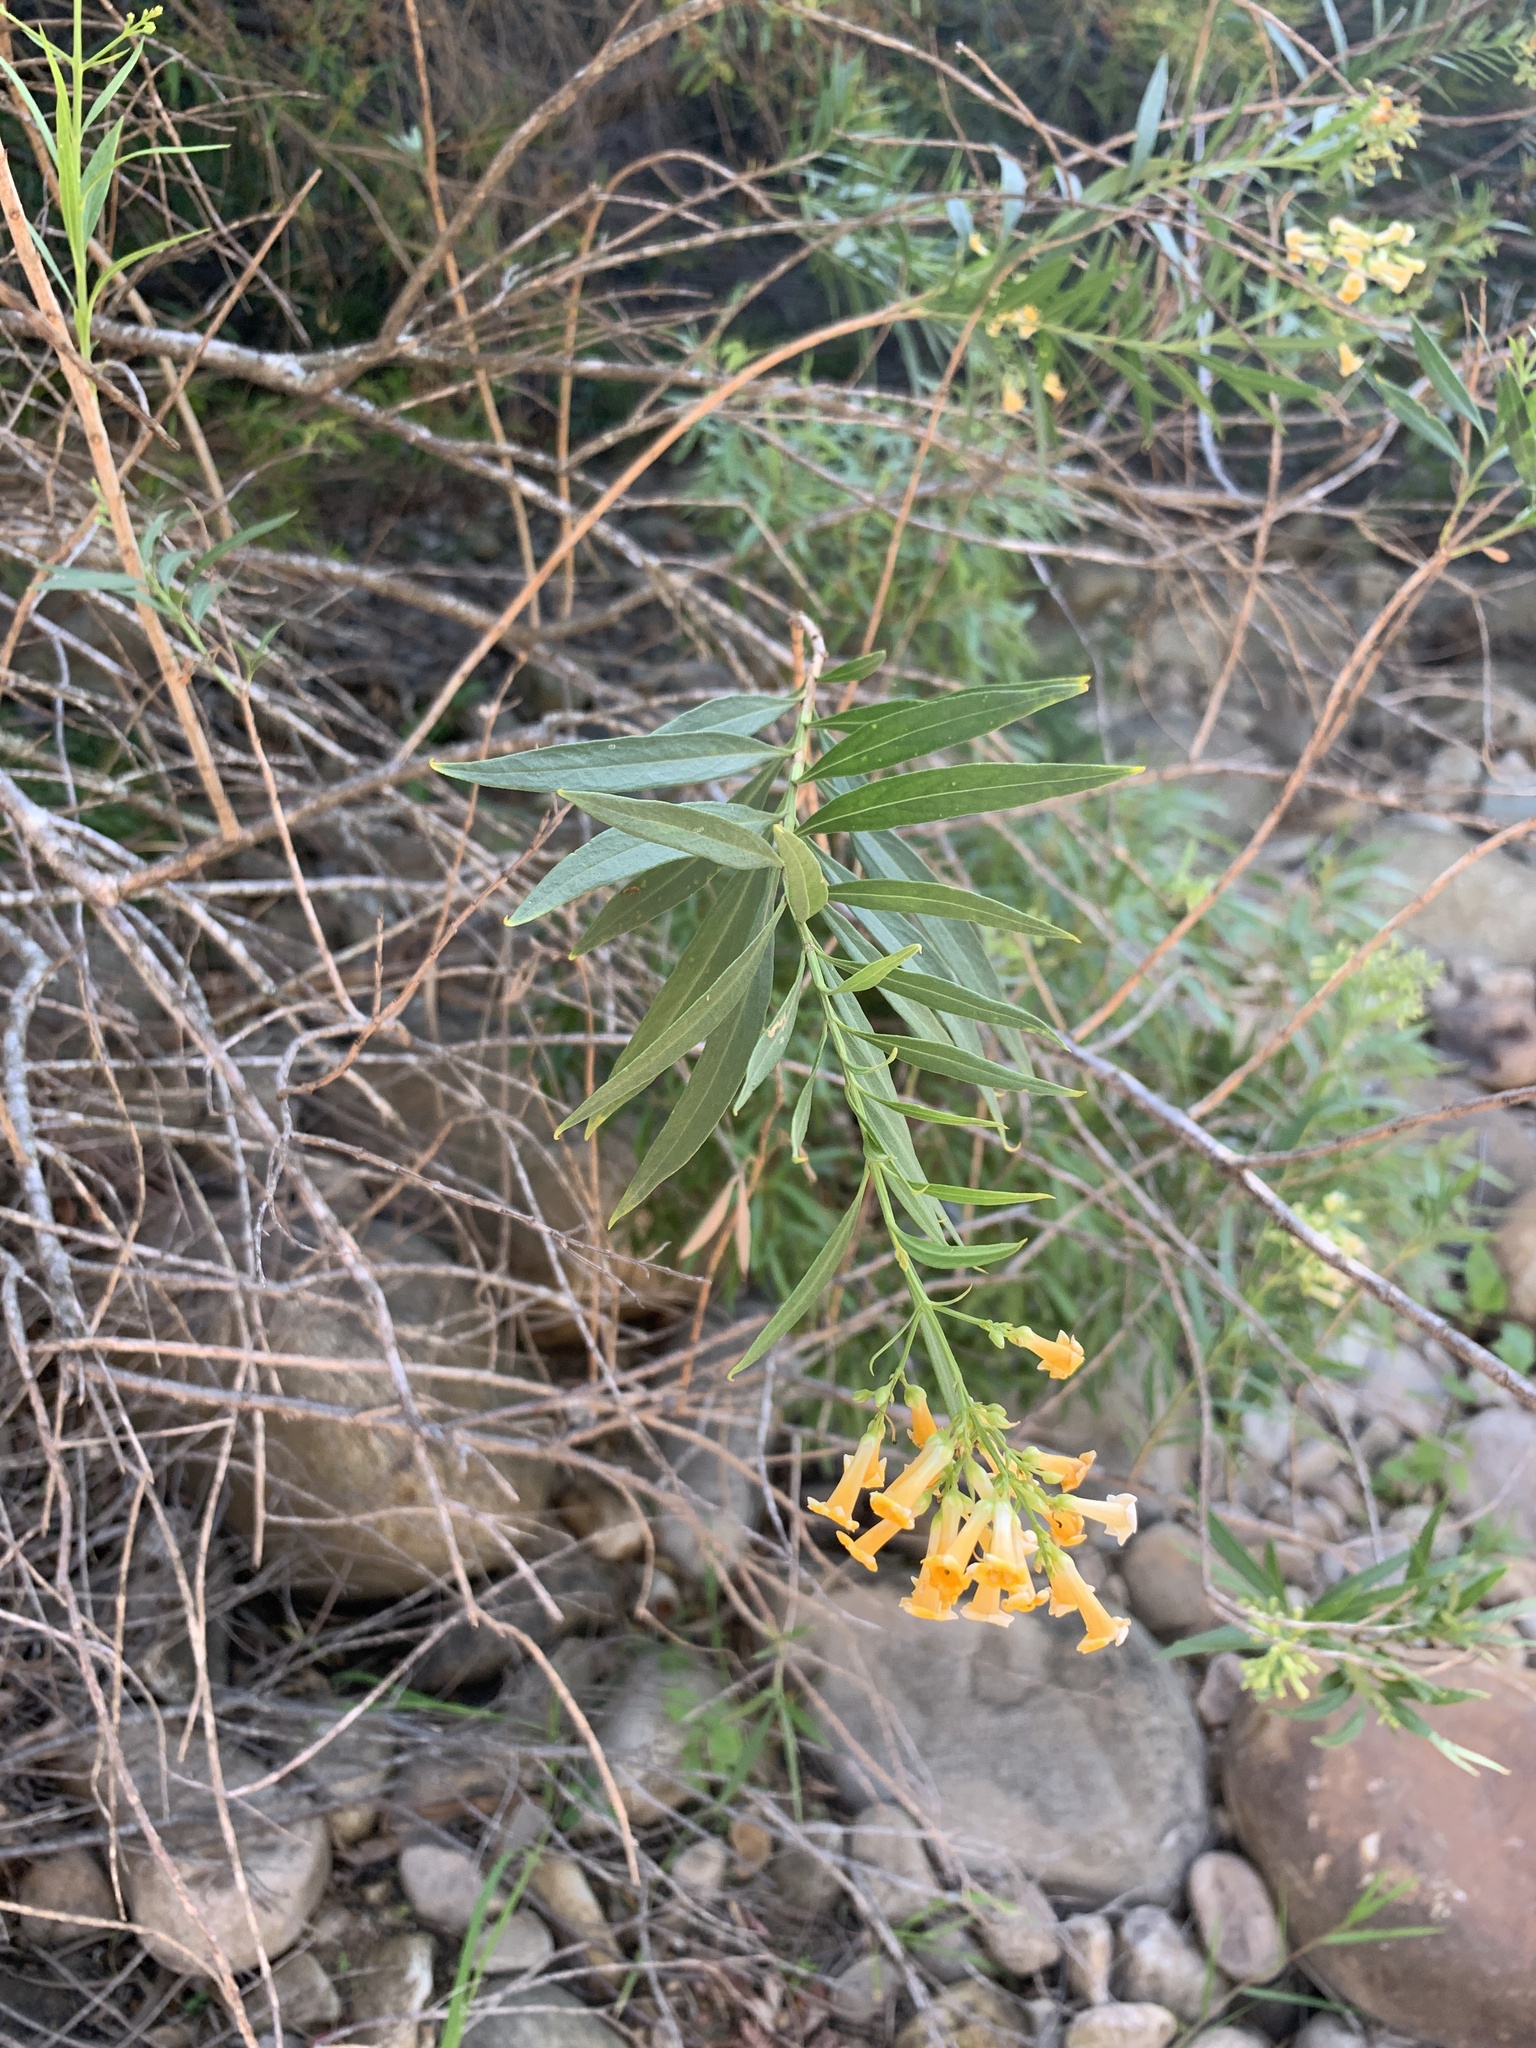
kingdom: Plantae
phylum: Tracheophyta
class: Magnoliopsida
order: Lamiales
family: Scrophulariaceae
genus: Freylinia
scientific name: Freylinia lanceolata
